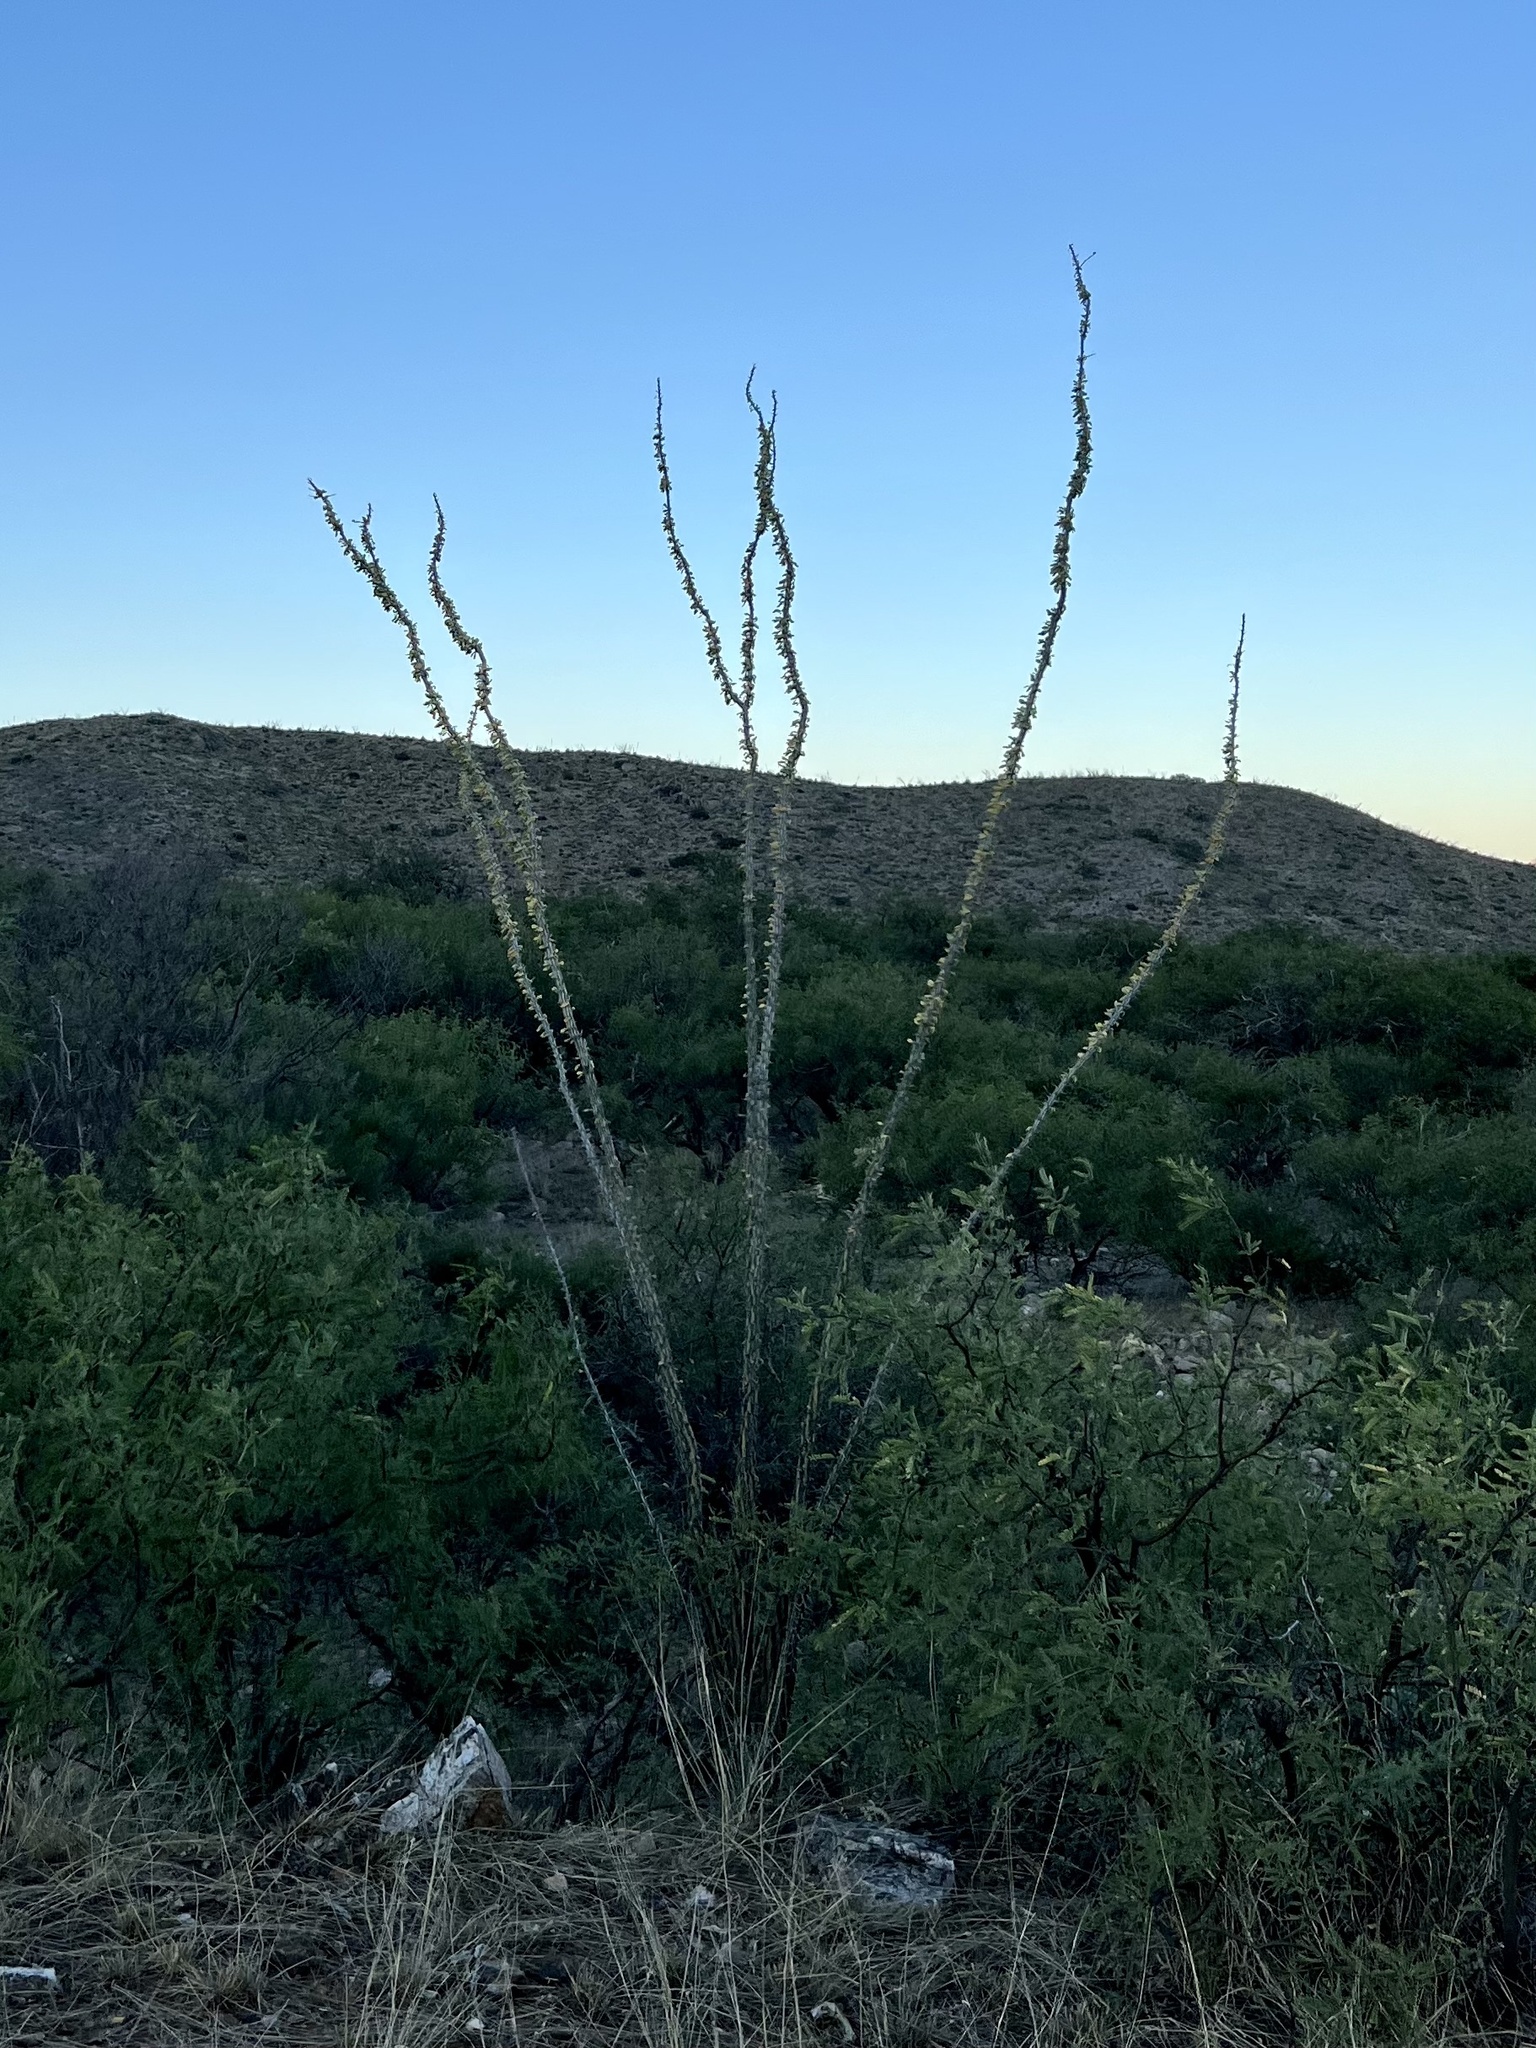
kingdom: Plantae
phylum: Tracheophyta
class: Magnoliopsida
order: Ericales
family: Fouquieriaceae
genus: Fouquieria
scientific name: Fouquieria splendens
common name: Vine-cactus
